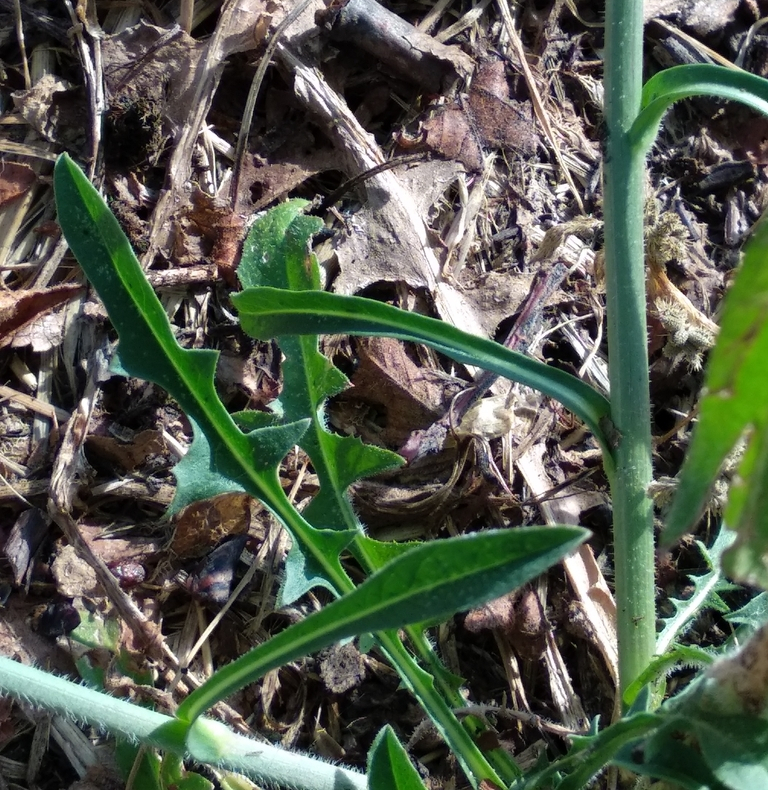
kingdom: Plantae
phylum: Tracheophyta
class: Magnoliopsida
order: Asterales
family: Asteraceae
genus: Cichorium
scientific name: Cichorium intybus
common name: Chicory
